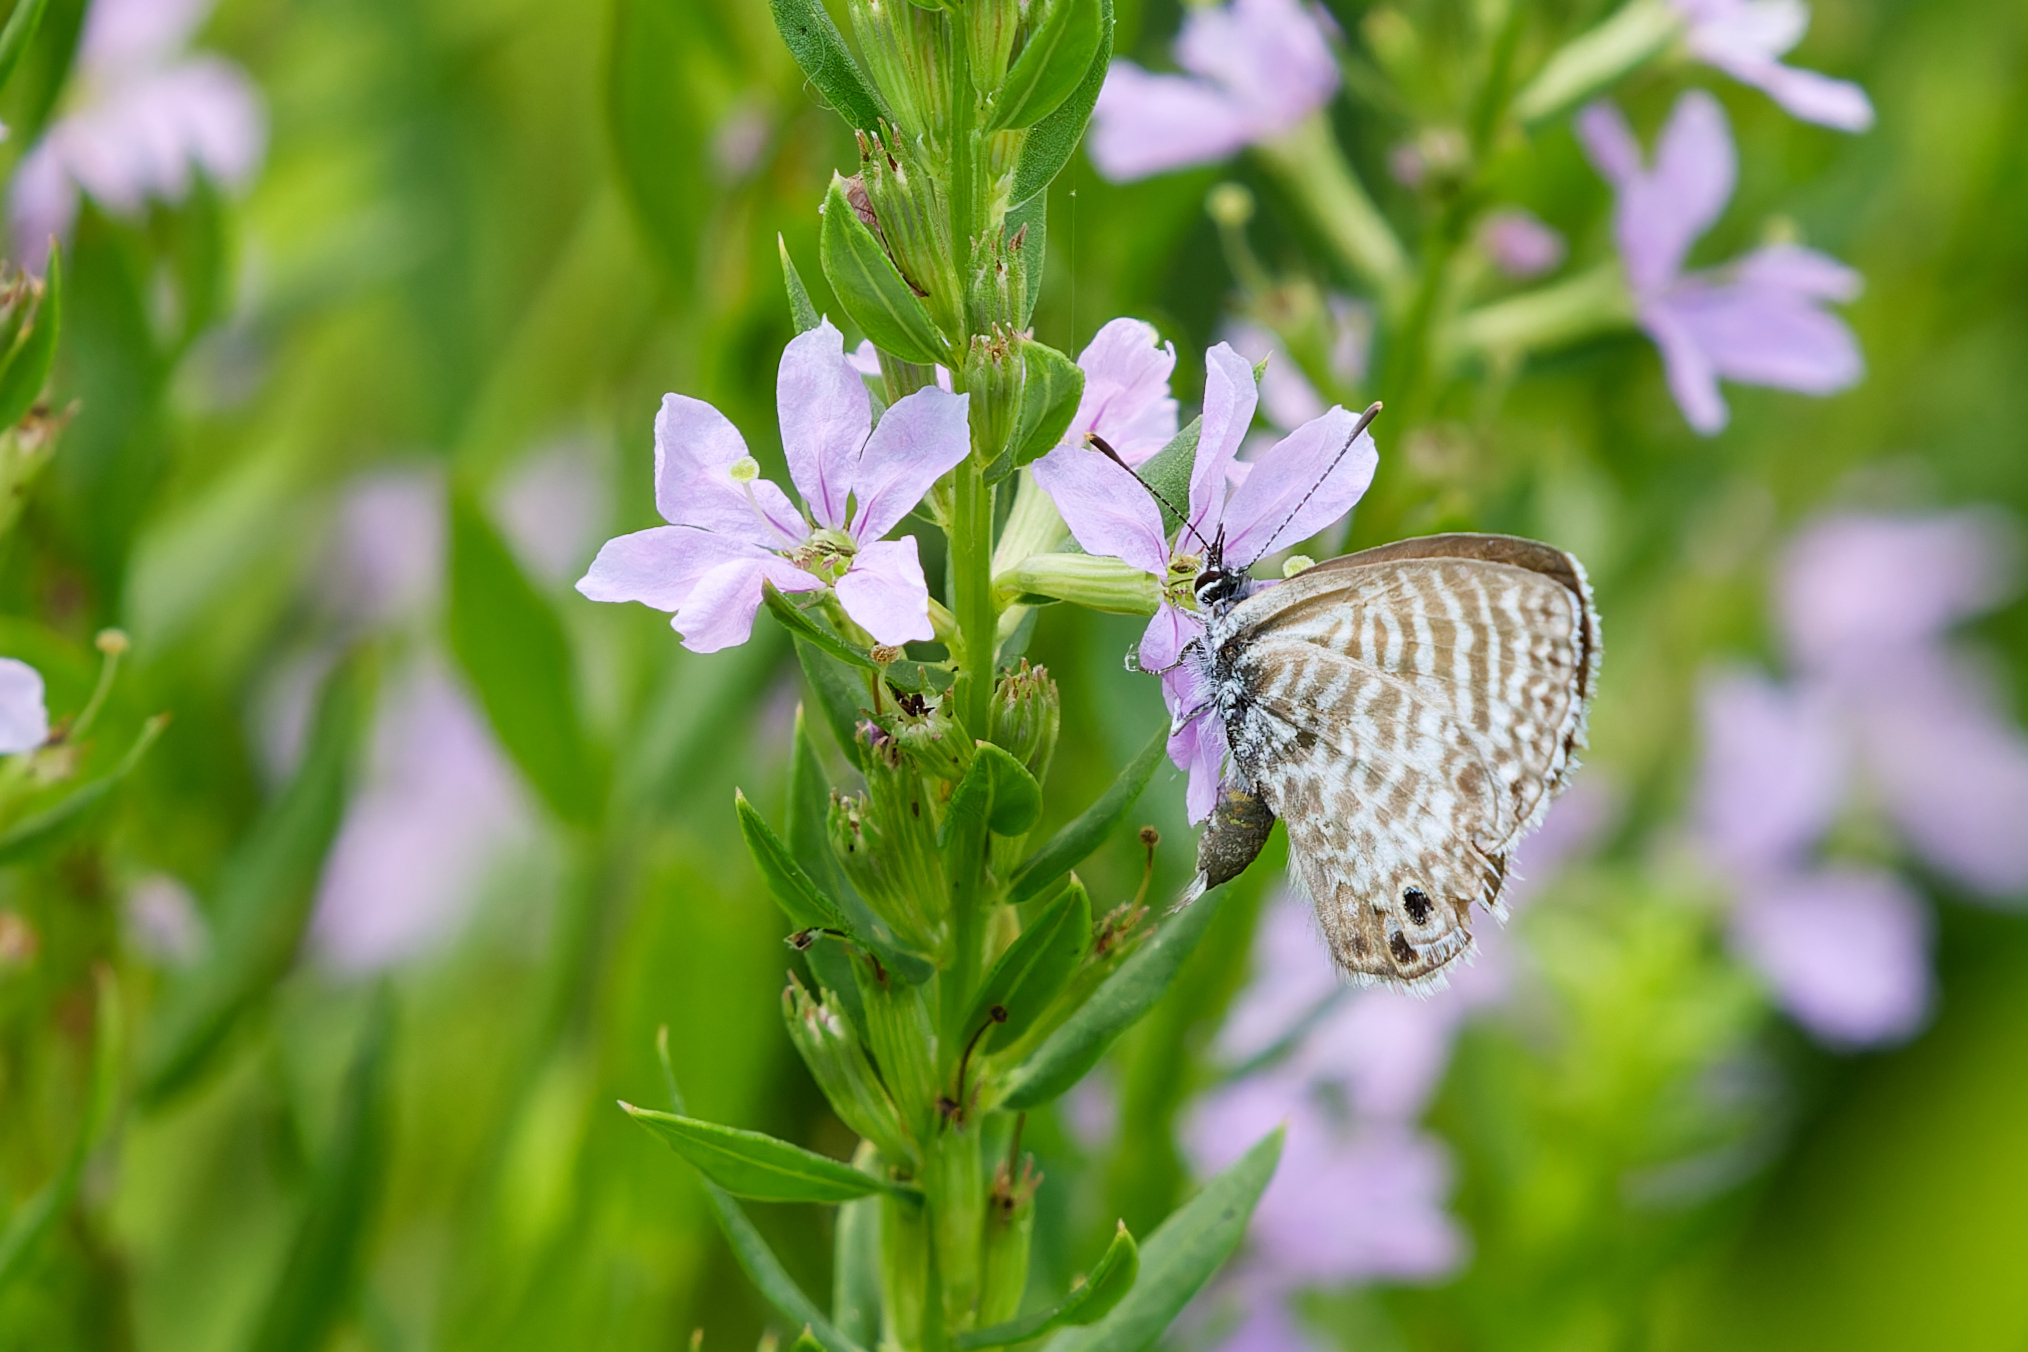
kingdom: Animalia
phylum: Arthropoda
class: Insecta
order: Lepidoptera
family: Lycaenidae
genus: Leptotes
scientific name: Leptotes marina
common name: Marine blue
